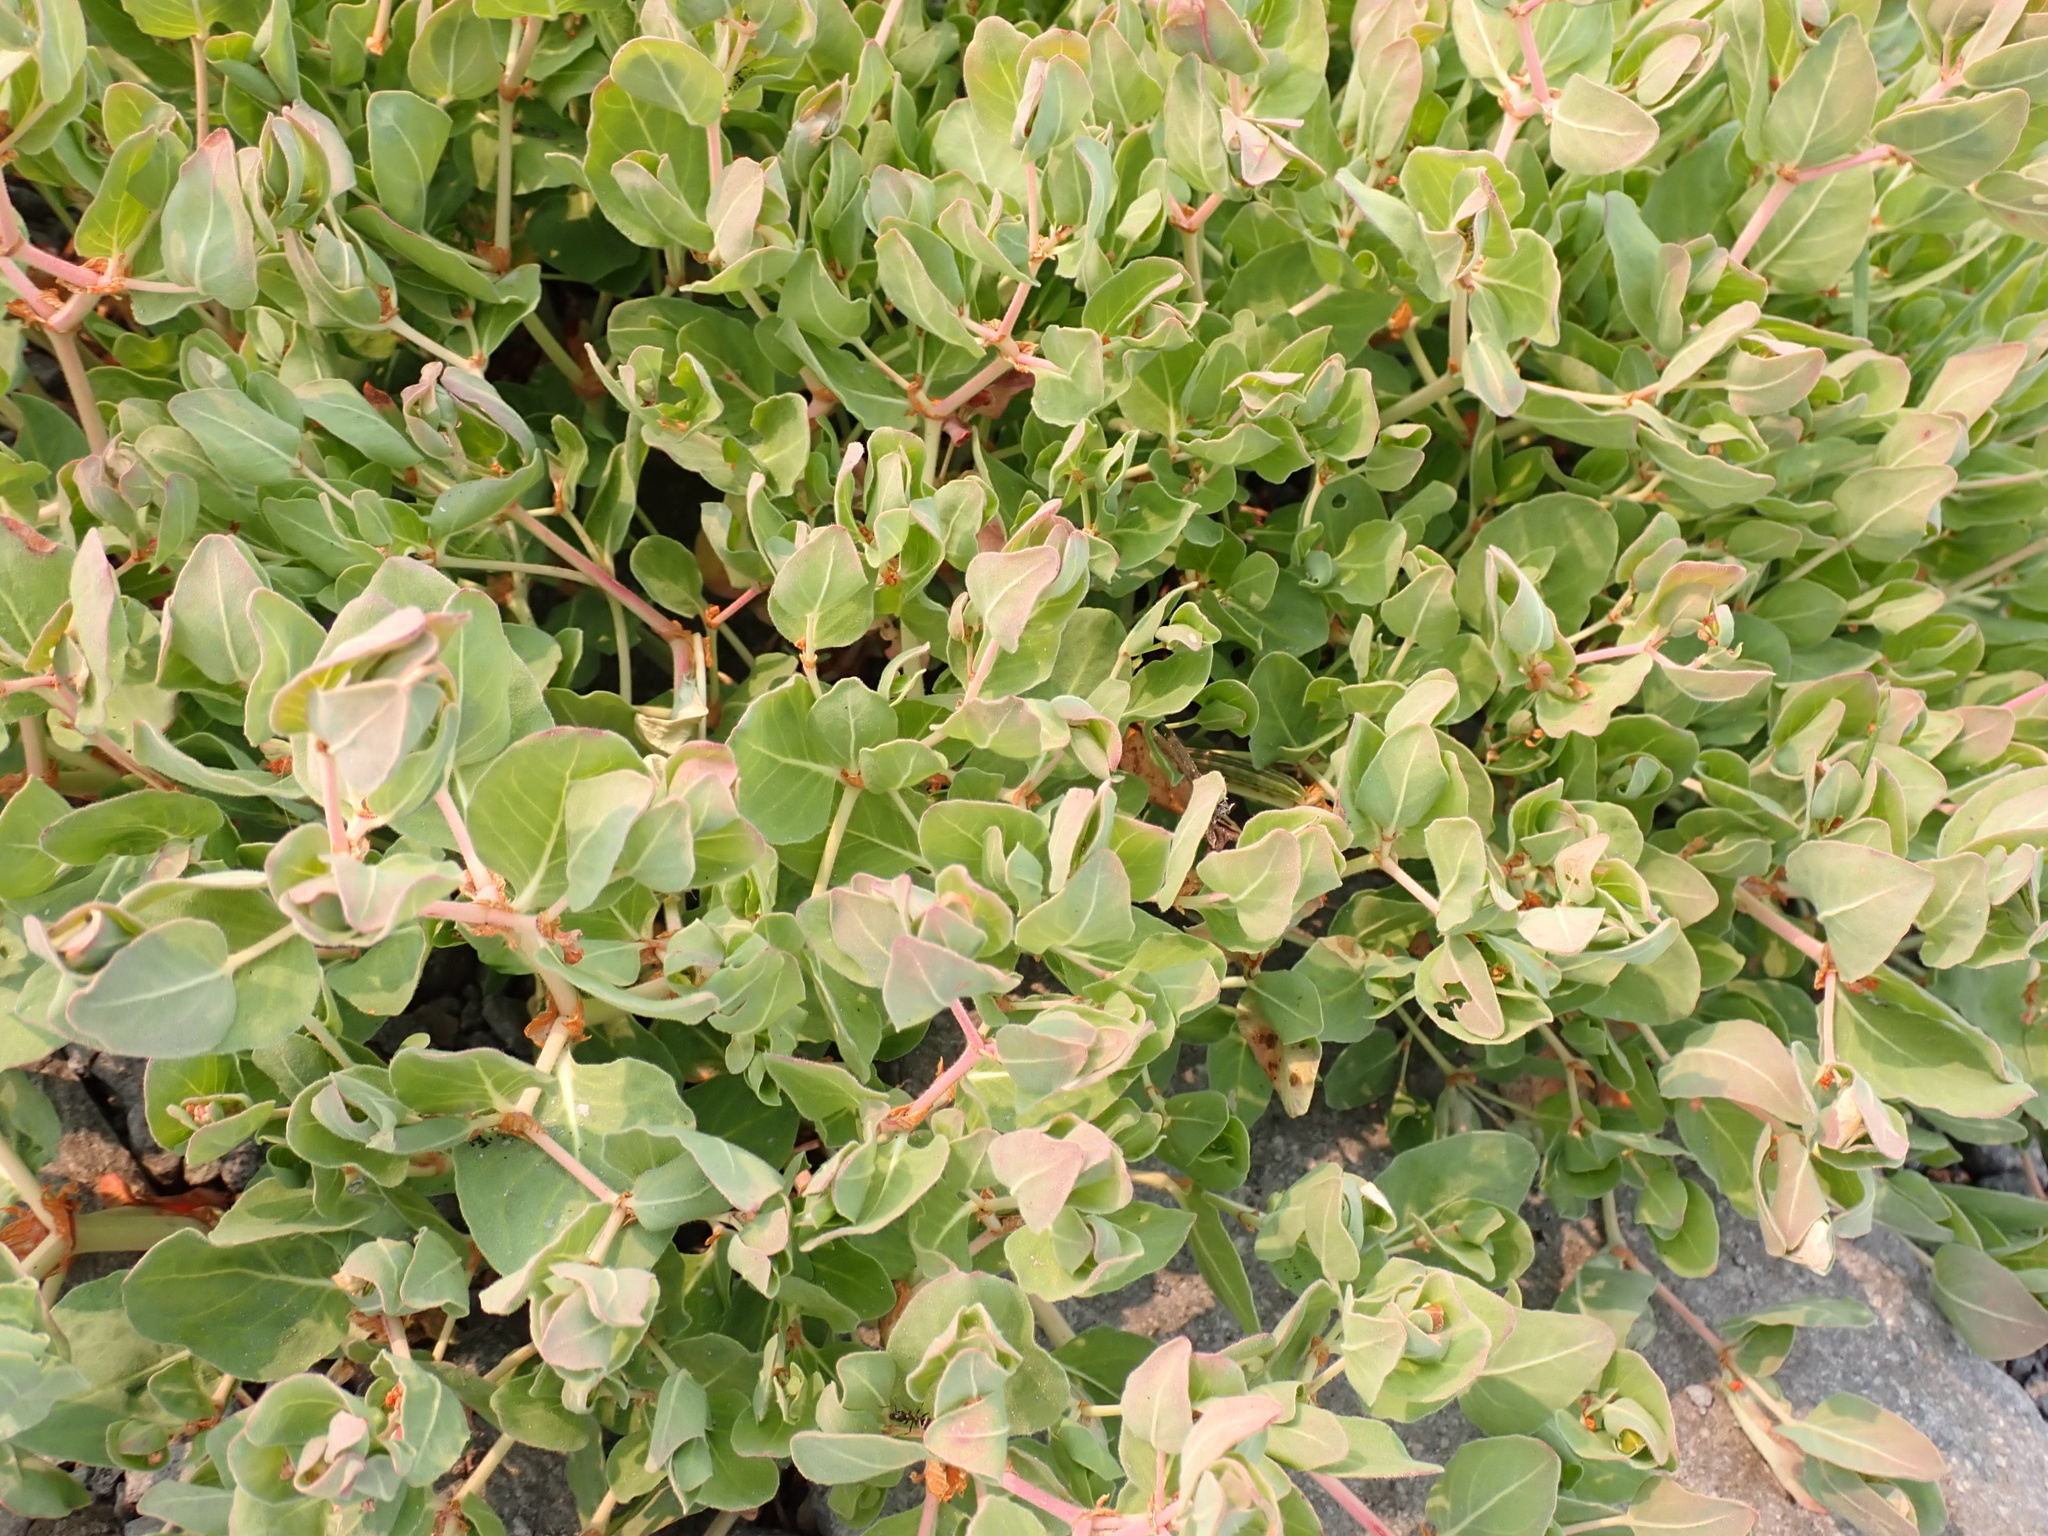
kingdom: Plantae
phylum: Tracheophyta
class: Magnoliopsida
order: Caryophyllales
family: Polygonaceae
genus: Koenigia
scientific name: Koenigia davisiae
